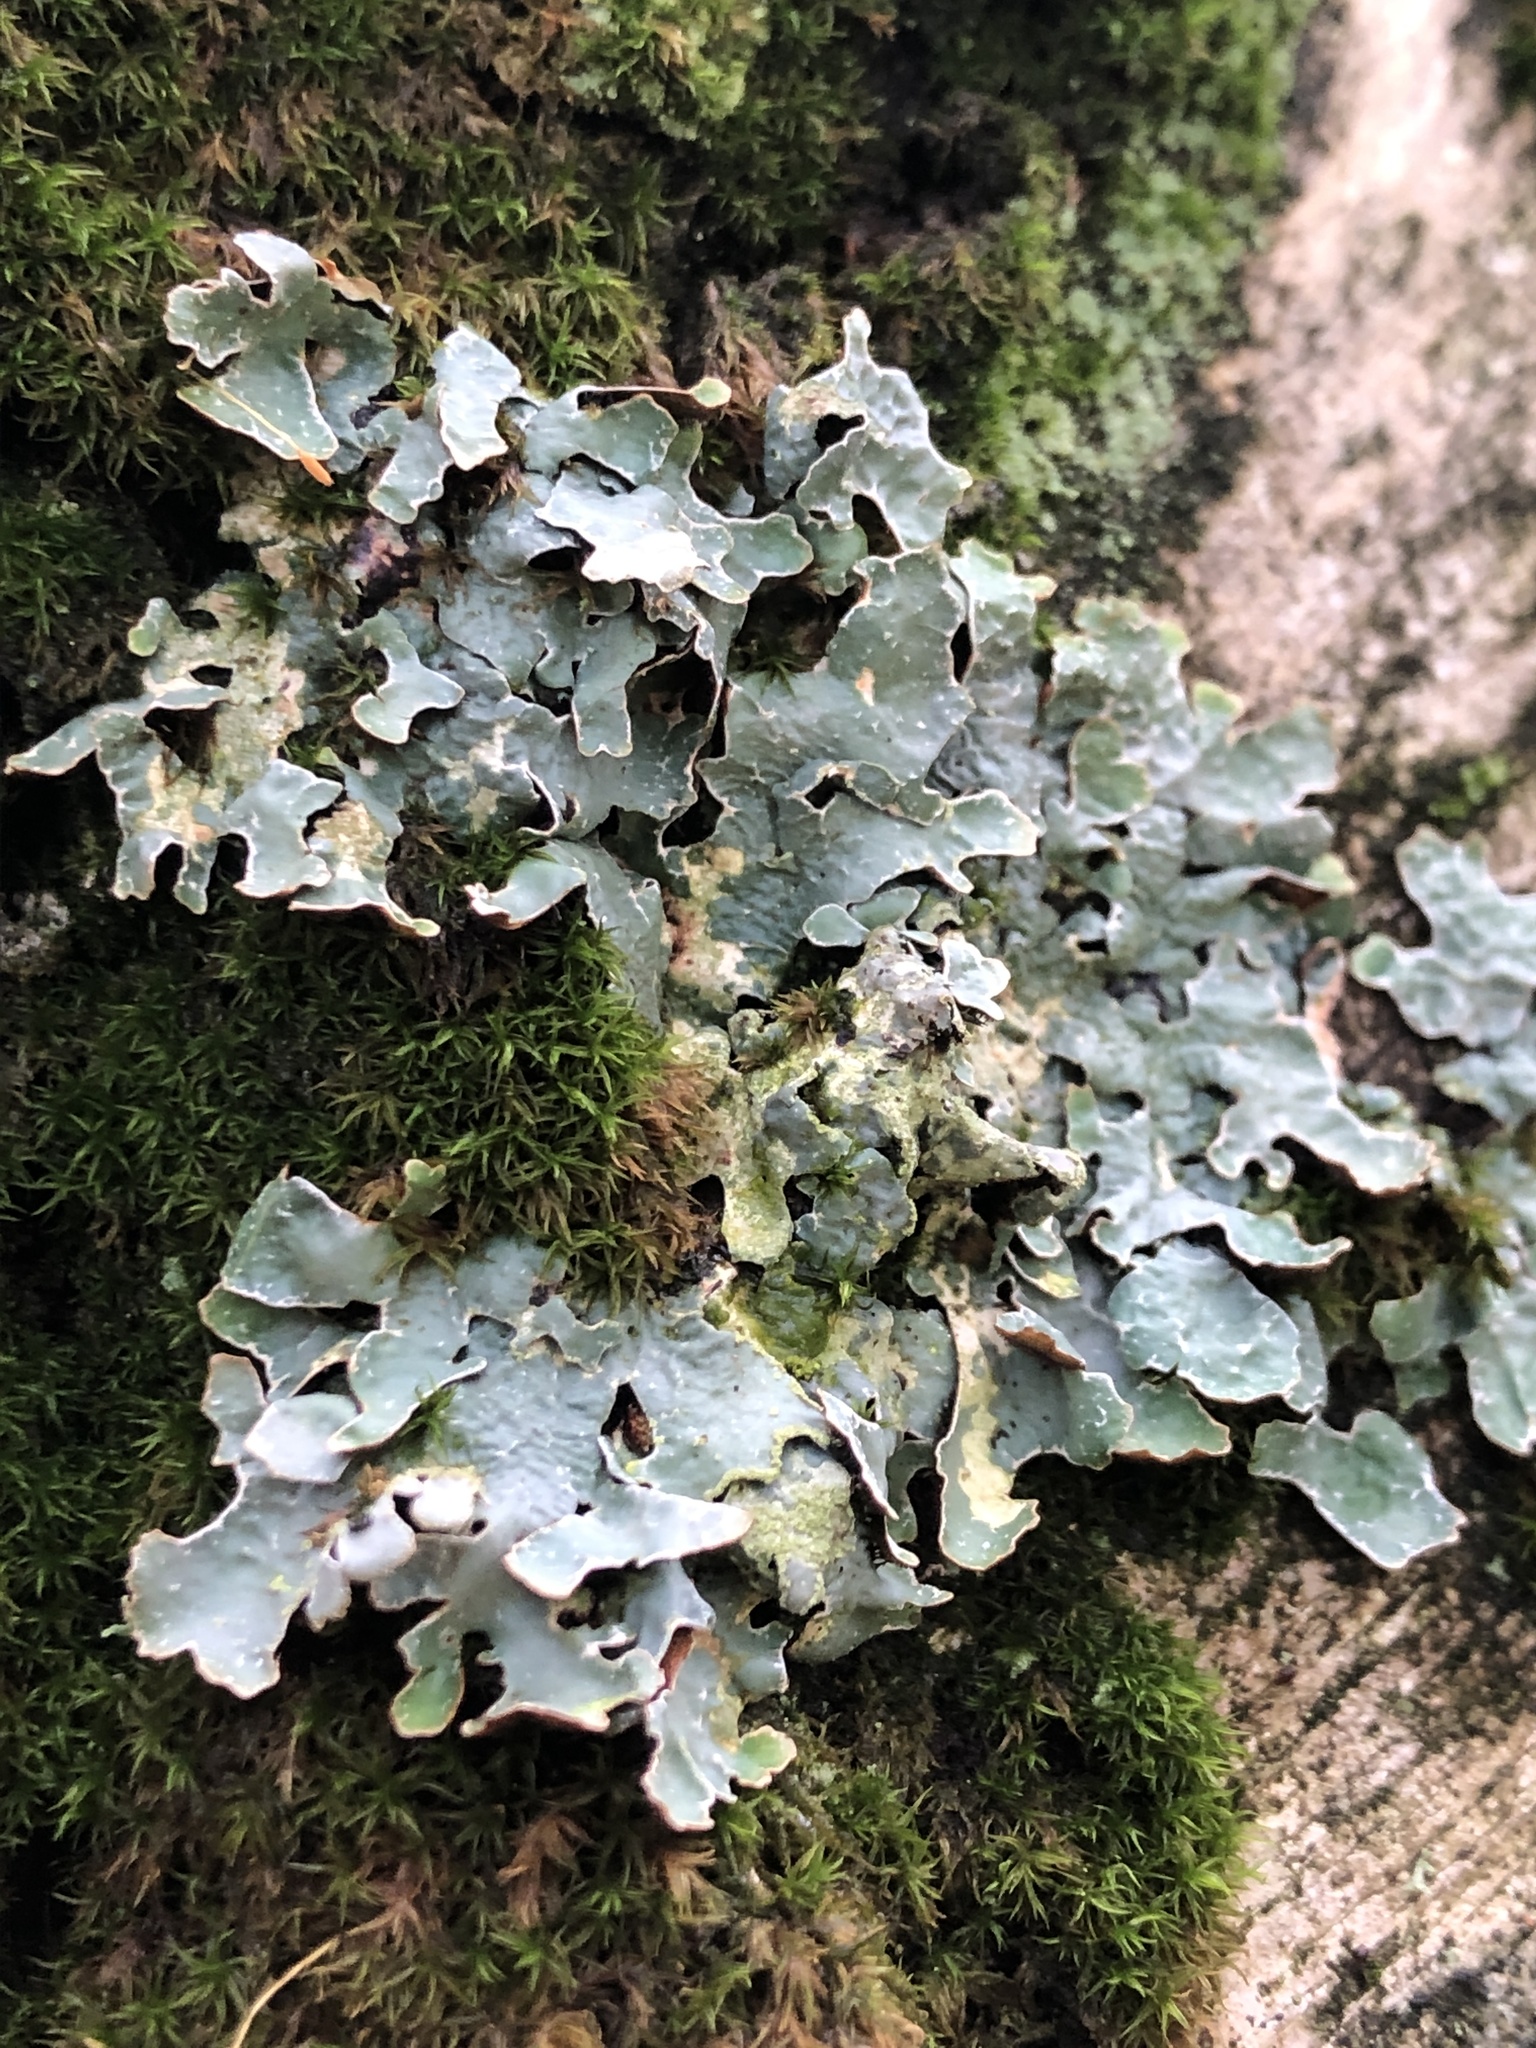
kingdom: Fungi
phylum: Ascomycota
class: Lecanoromycetes
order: Lecanorales
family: Parmeliaceae
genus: Parmelia
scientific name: Parmelia sulcata
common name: Netted shield lichen
